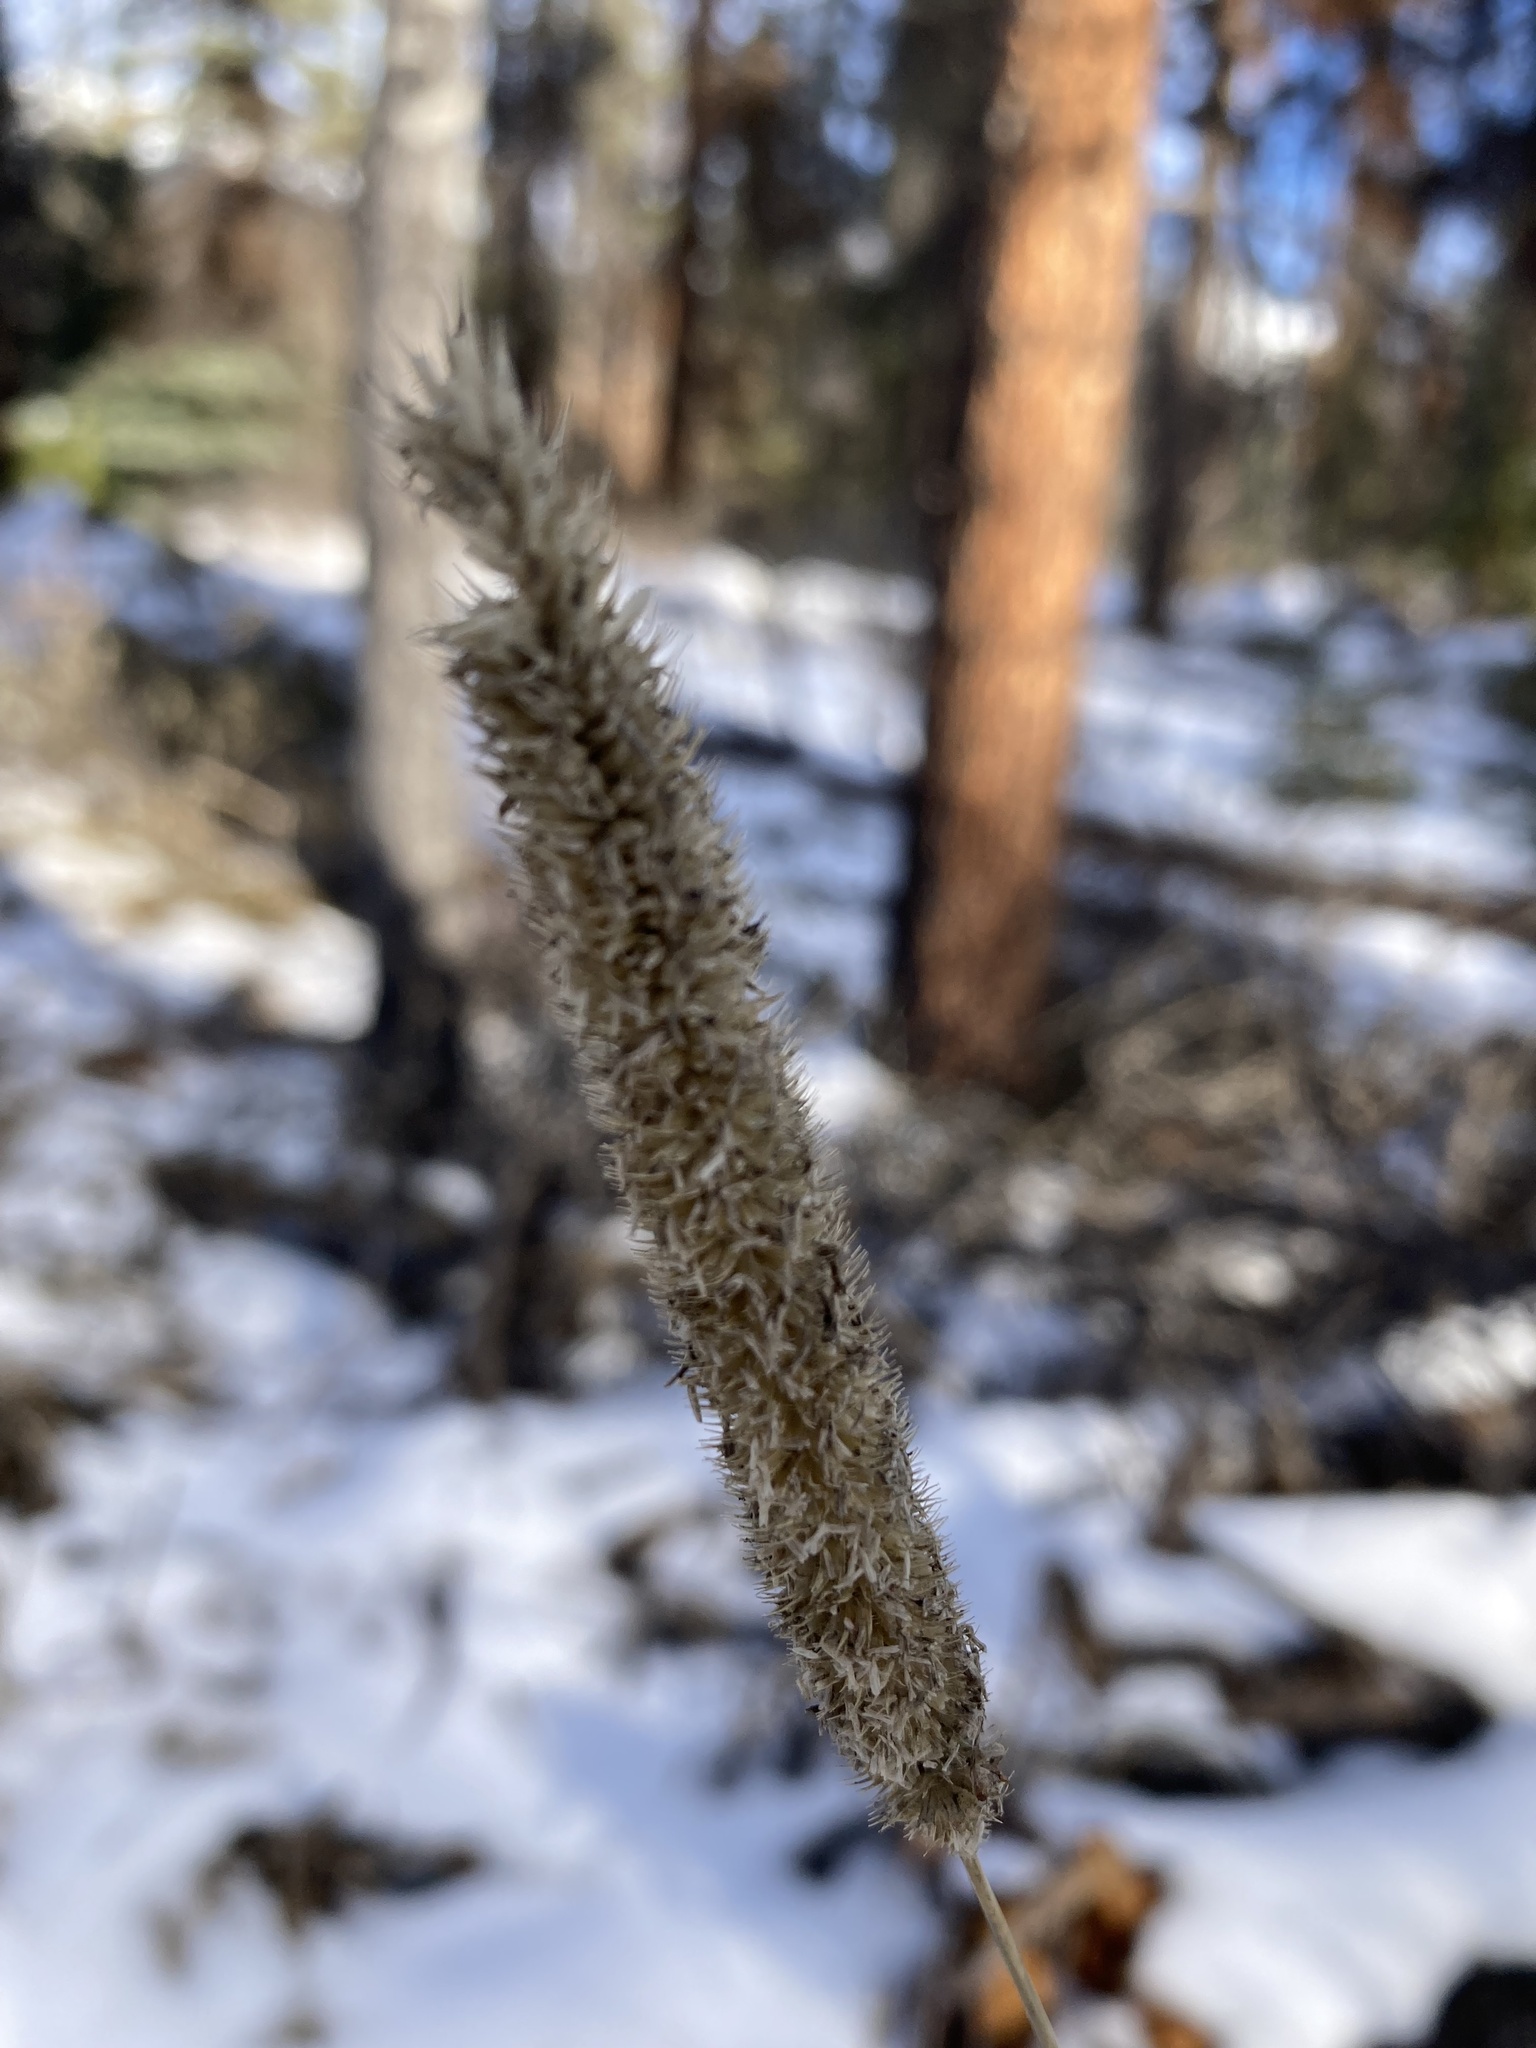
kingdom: Plantae
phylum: Tracheophyta
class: Liliopsida
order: Poales
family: Poaceae
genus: Phleum
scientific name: Phleum pratense
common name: Timothy grass
